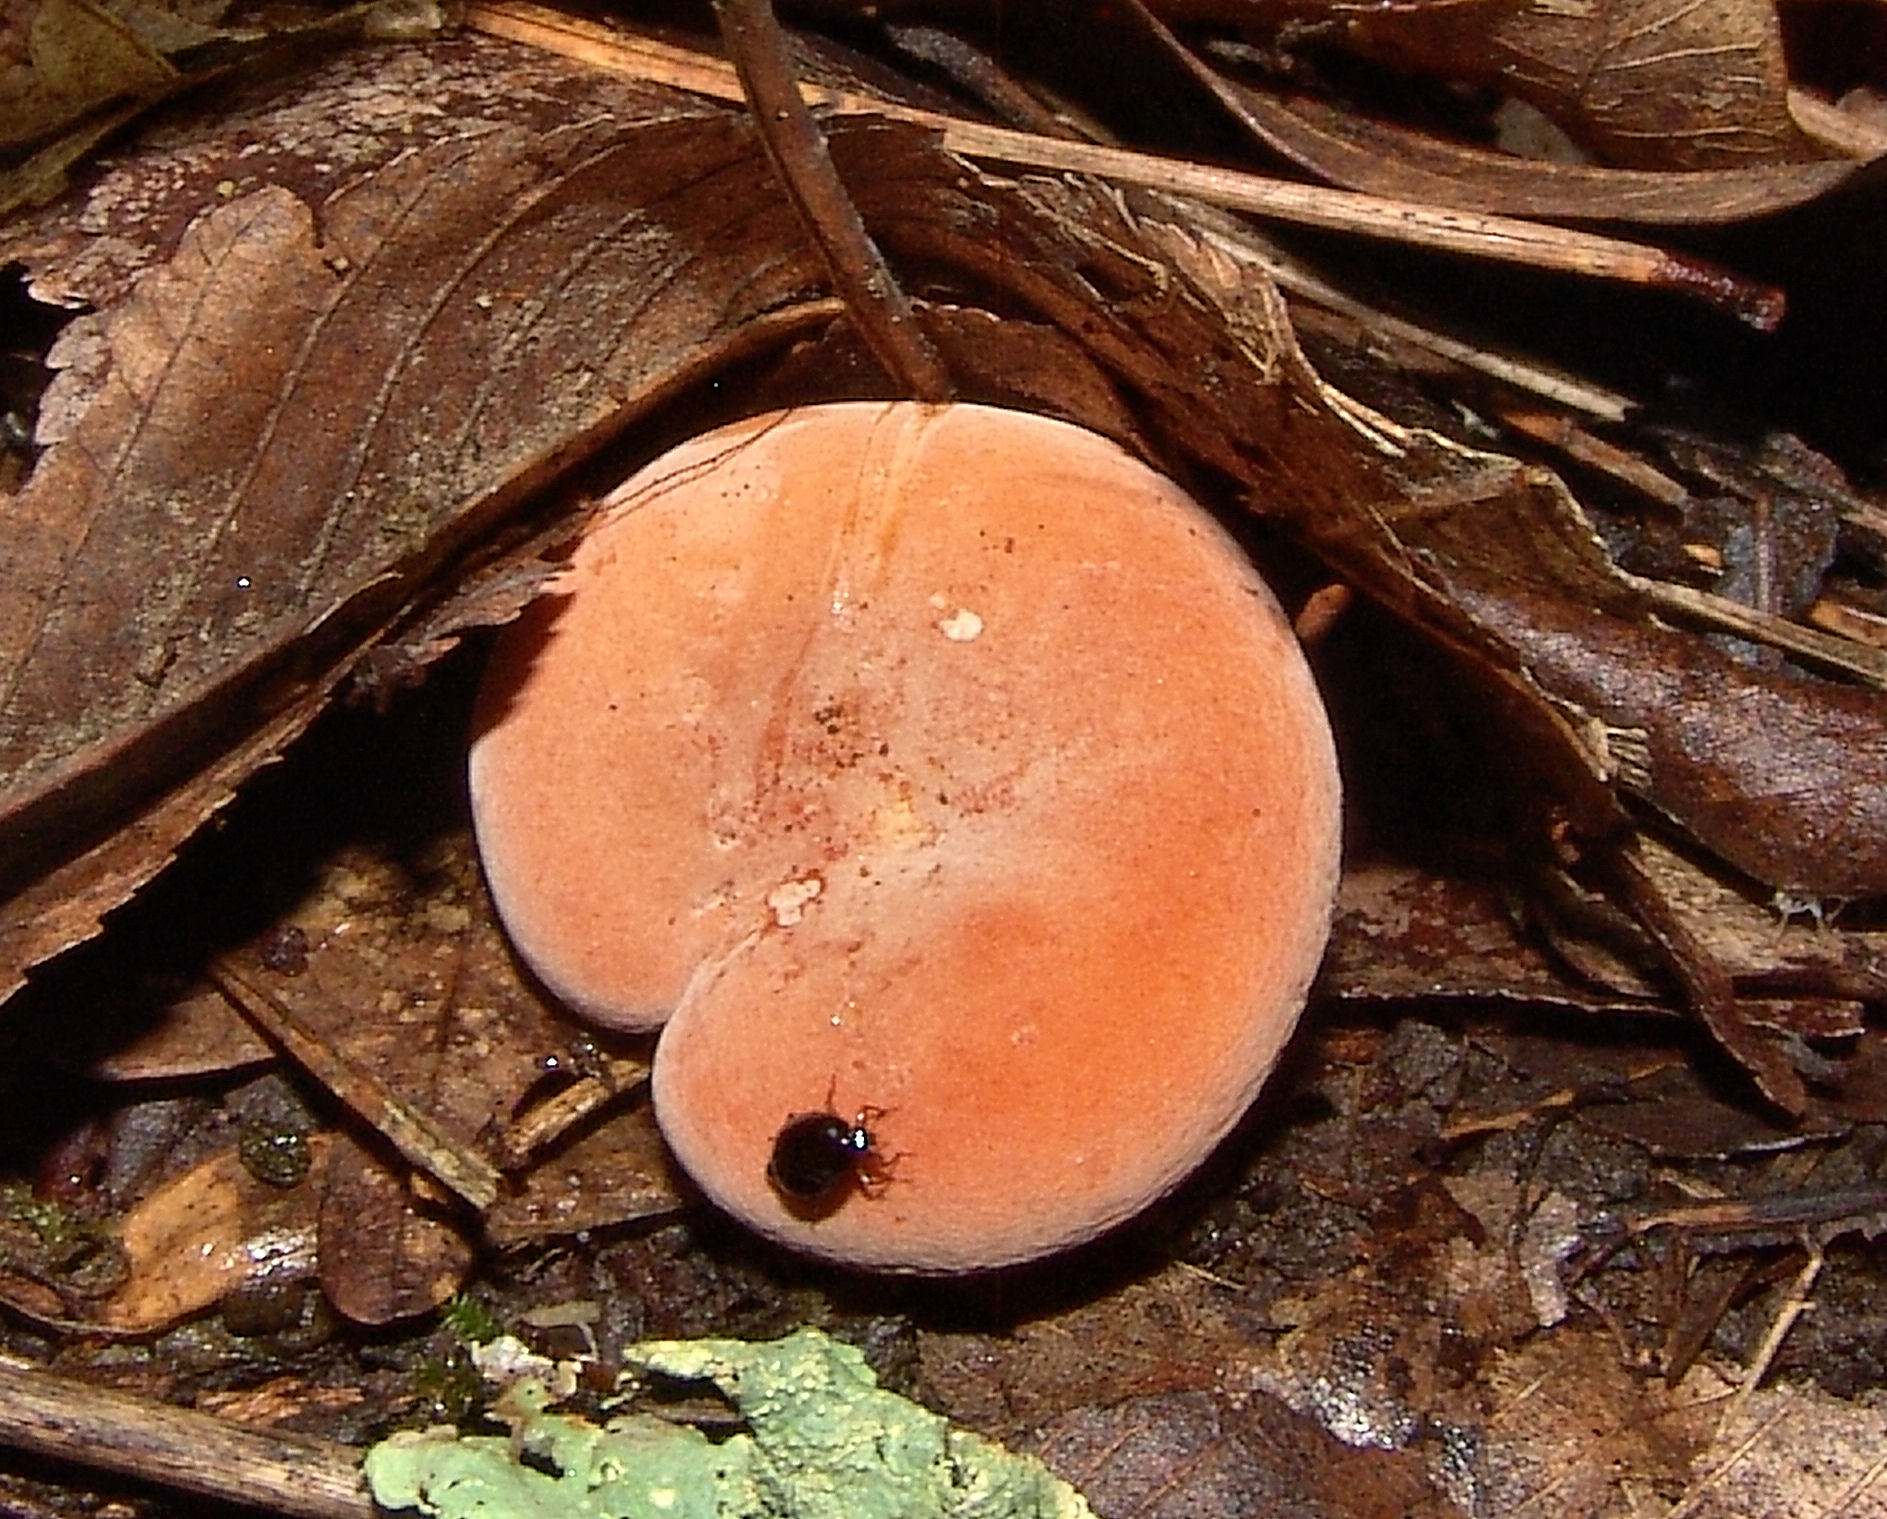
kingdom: Fungi
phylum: Basidiomycota
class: Agaricomycetes
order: Russulales
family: Russulaceae
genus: Lactarius
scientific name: Lactarius hygrophoroides
